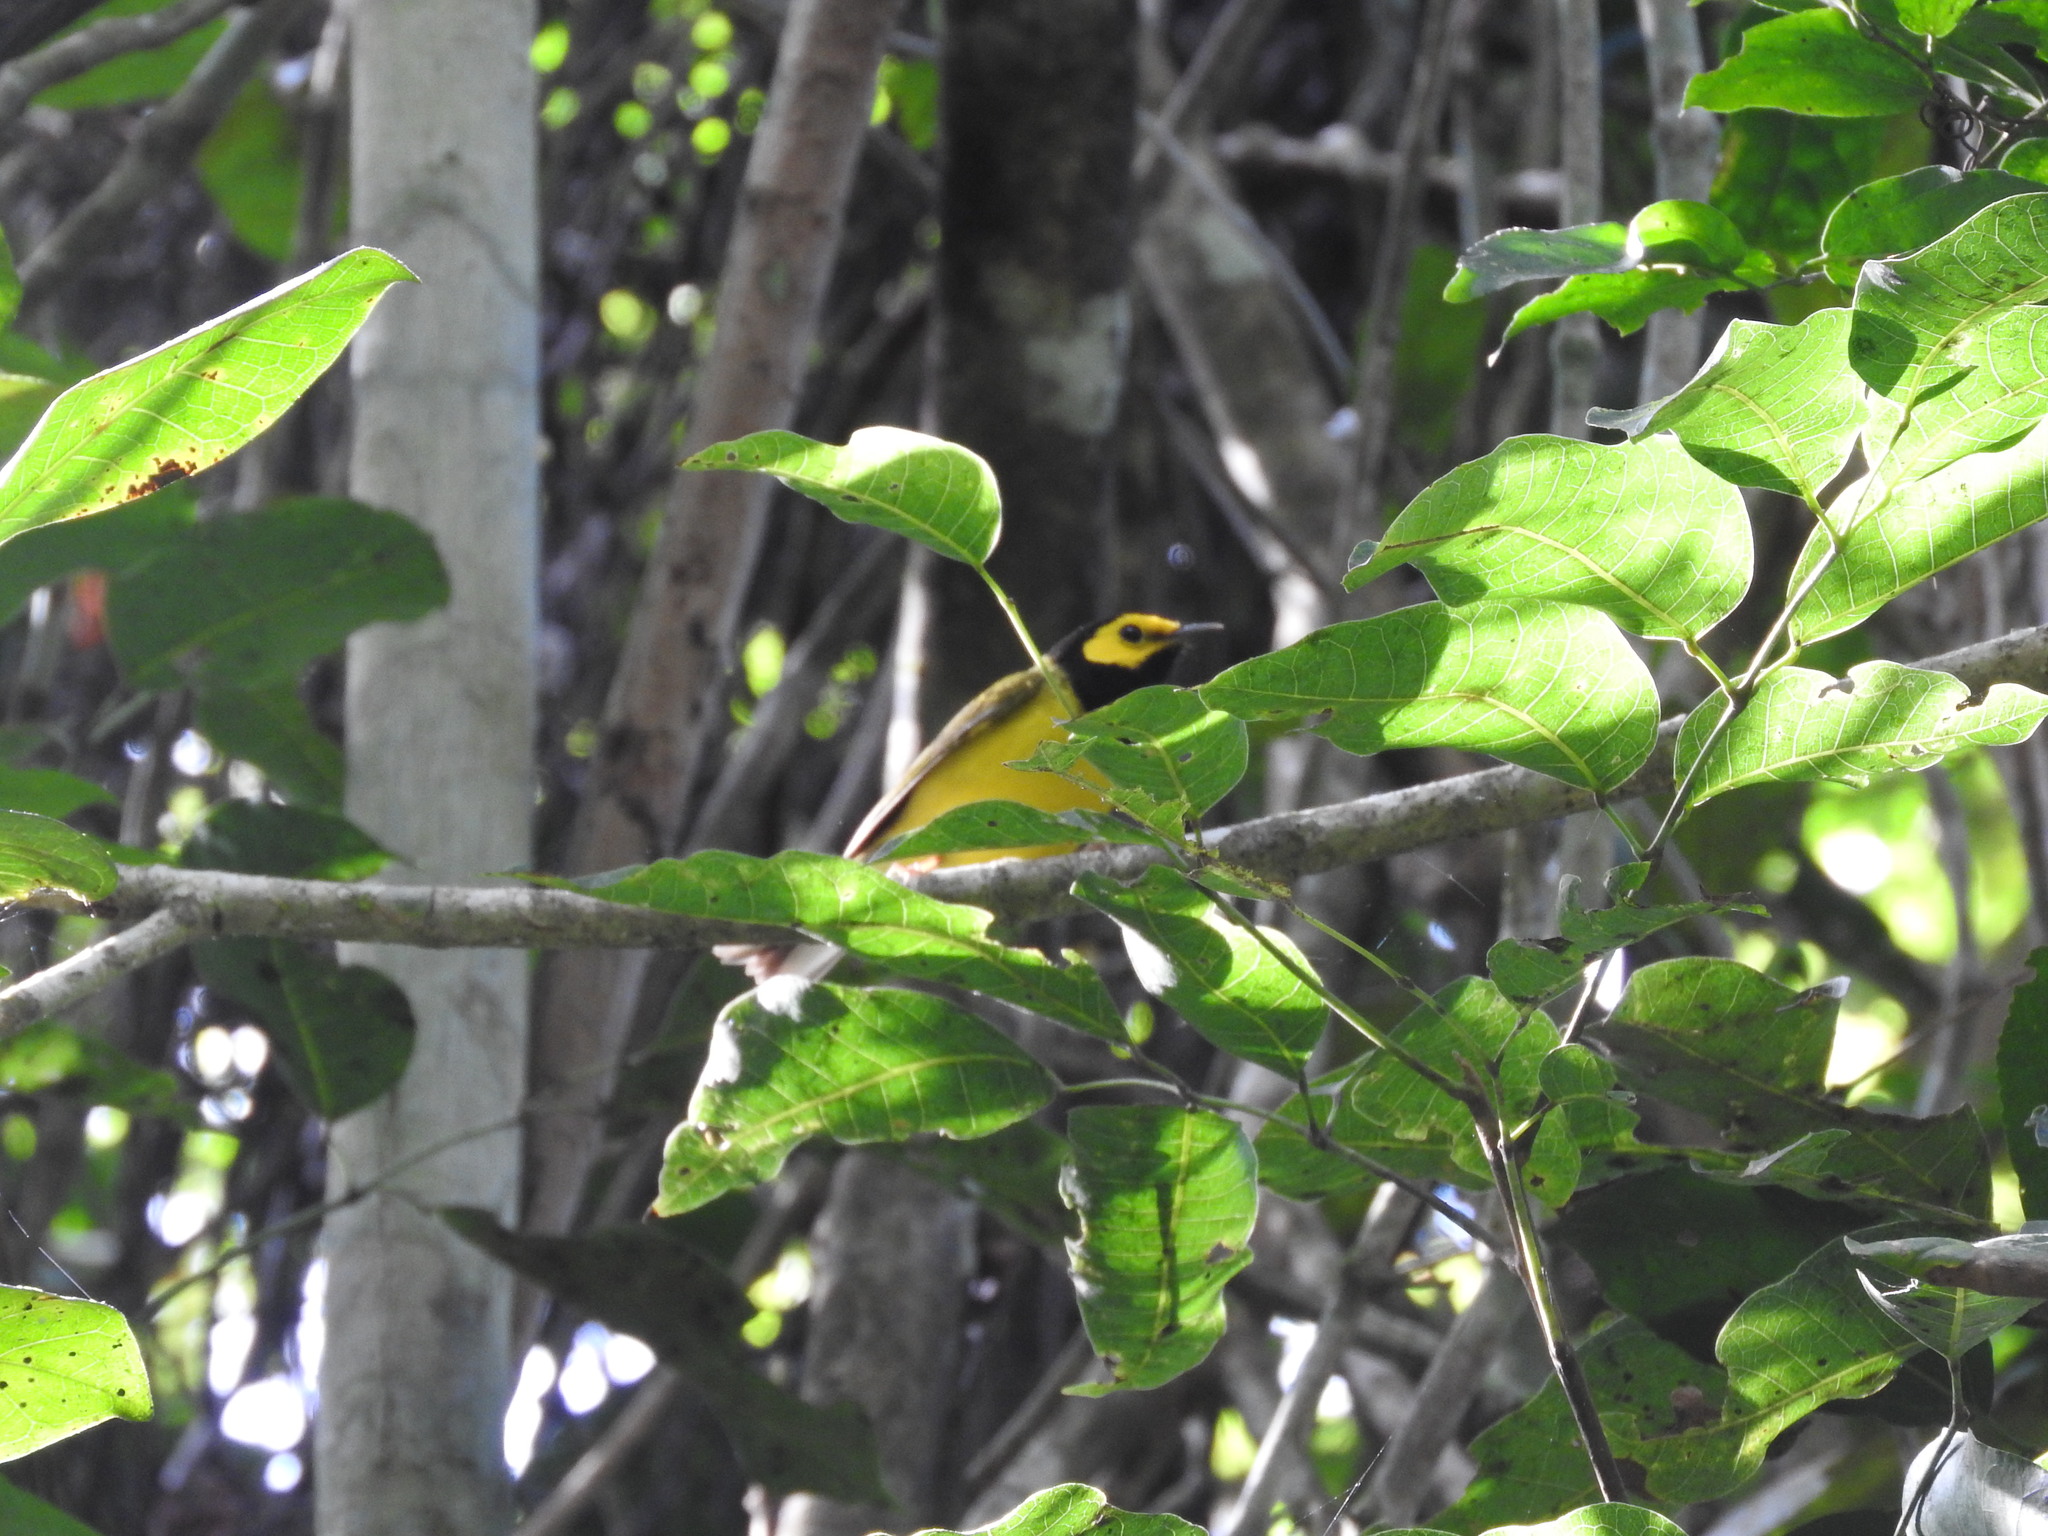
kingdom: Animalia
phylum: Chordata
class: Aves
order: Passeriformes
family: Parulidae
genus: Setophaga
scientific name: Setophaga citrina
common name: Hooded warbler
